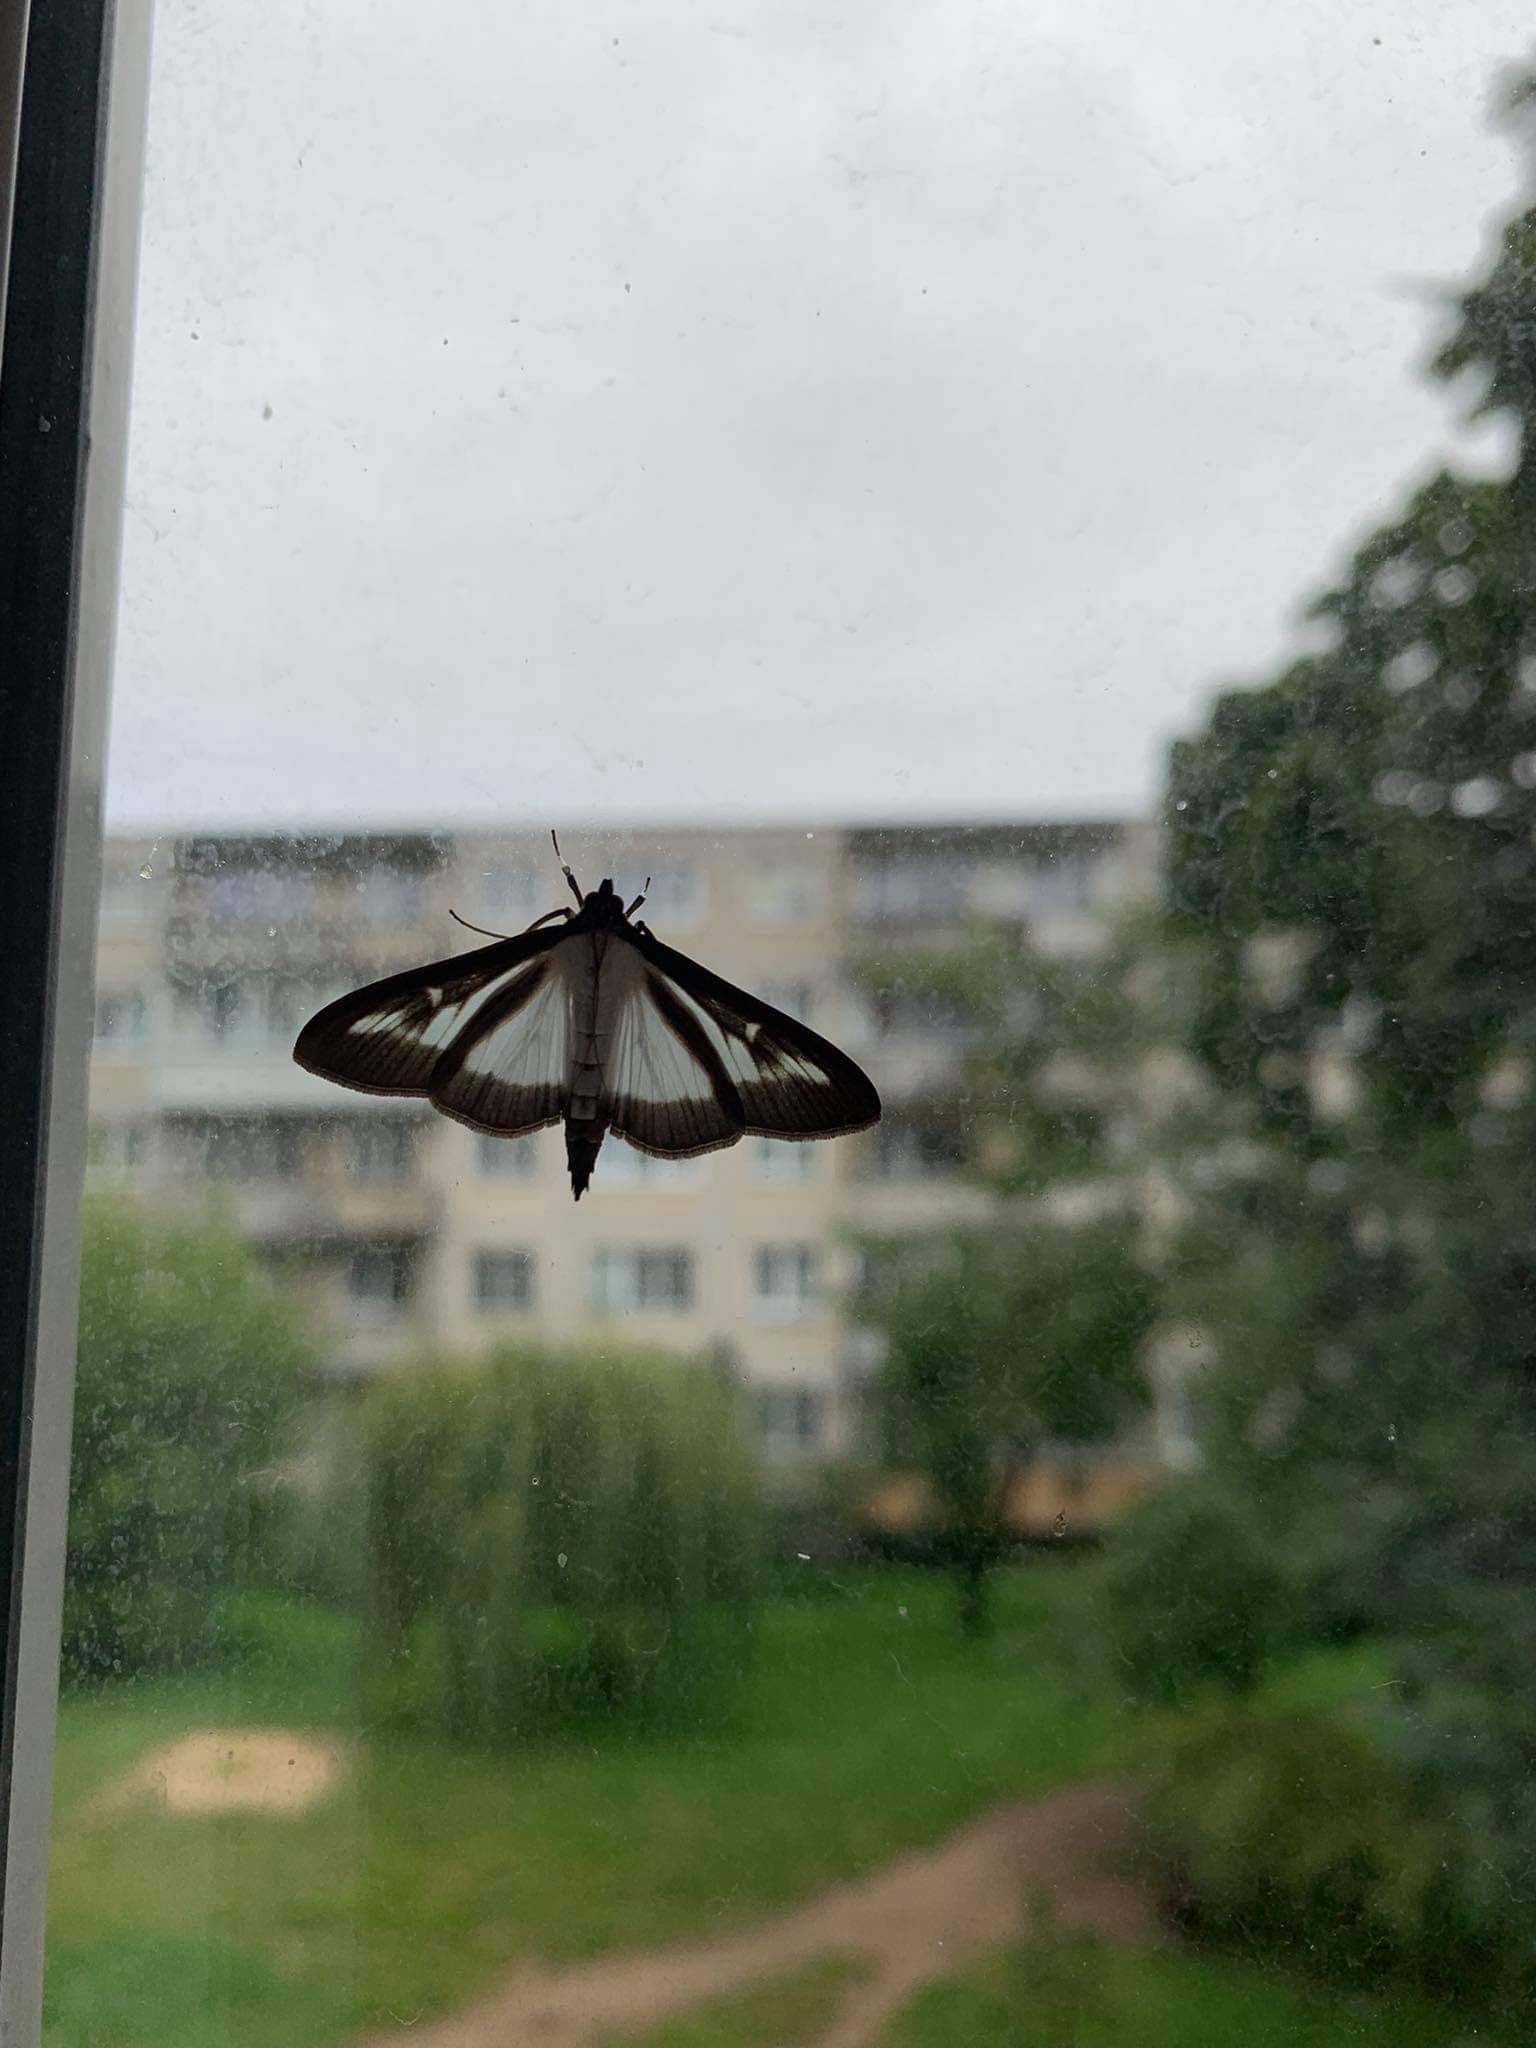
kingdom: Animalia
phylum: Arthropoda
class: Insecta
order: Lepidoptera
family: Crambidae
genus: Cydalima
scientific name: Cydalima perspectalis
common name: Box tree moth
